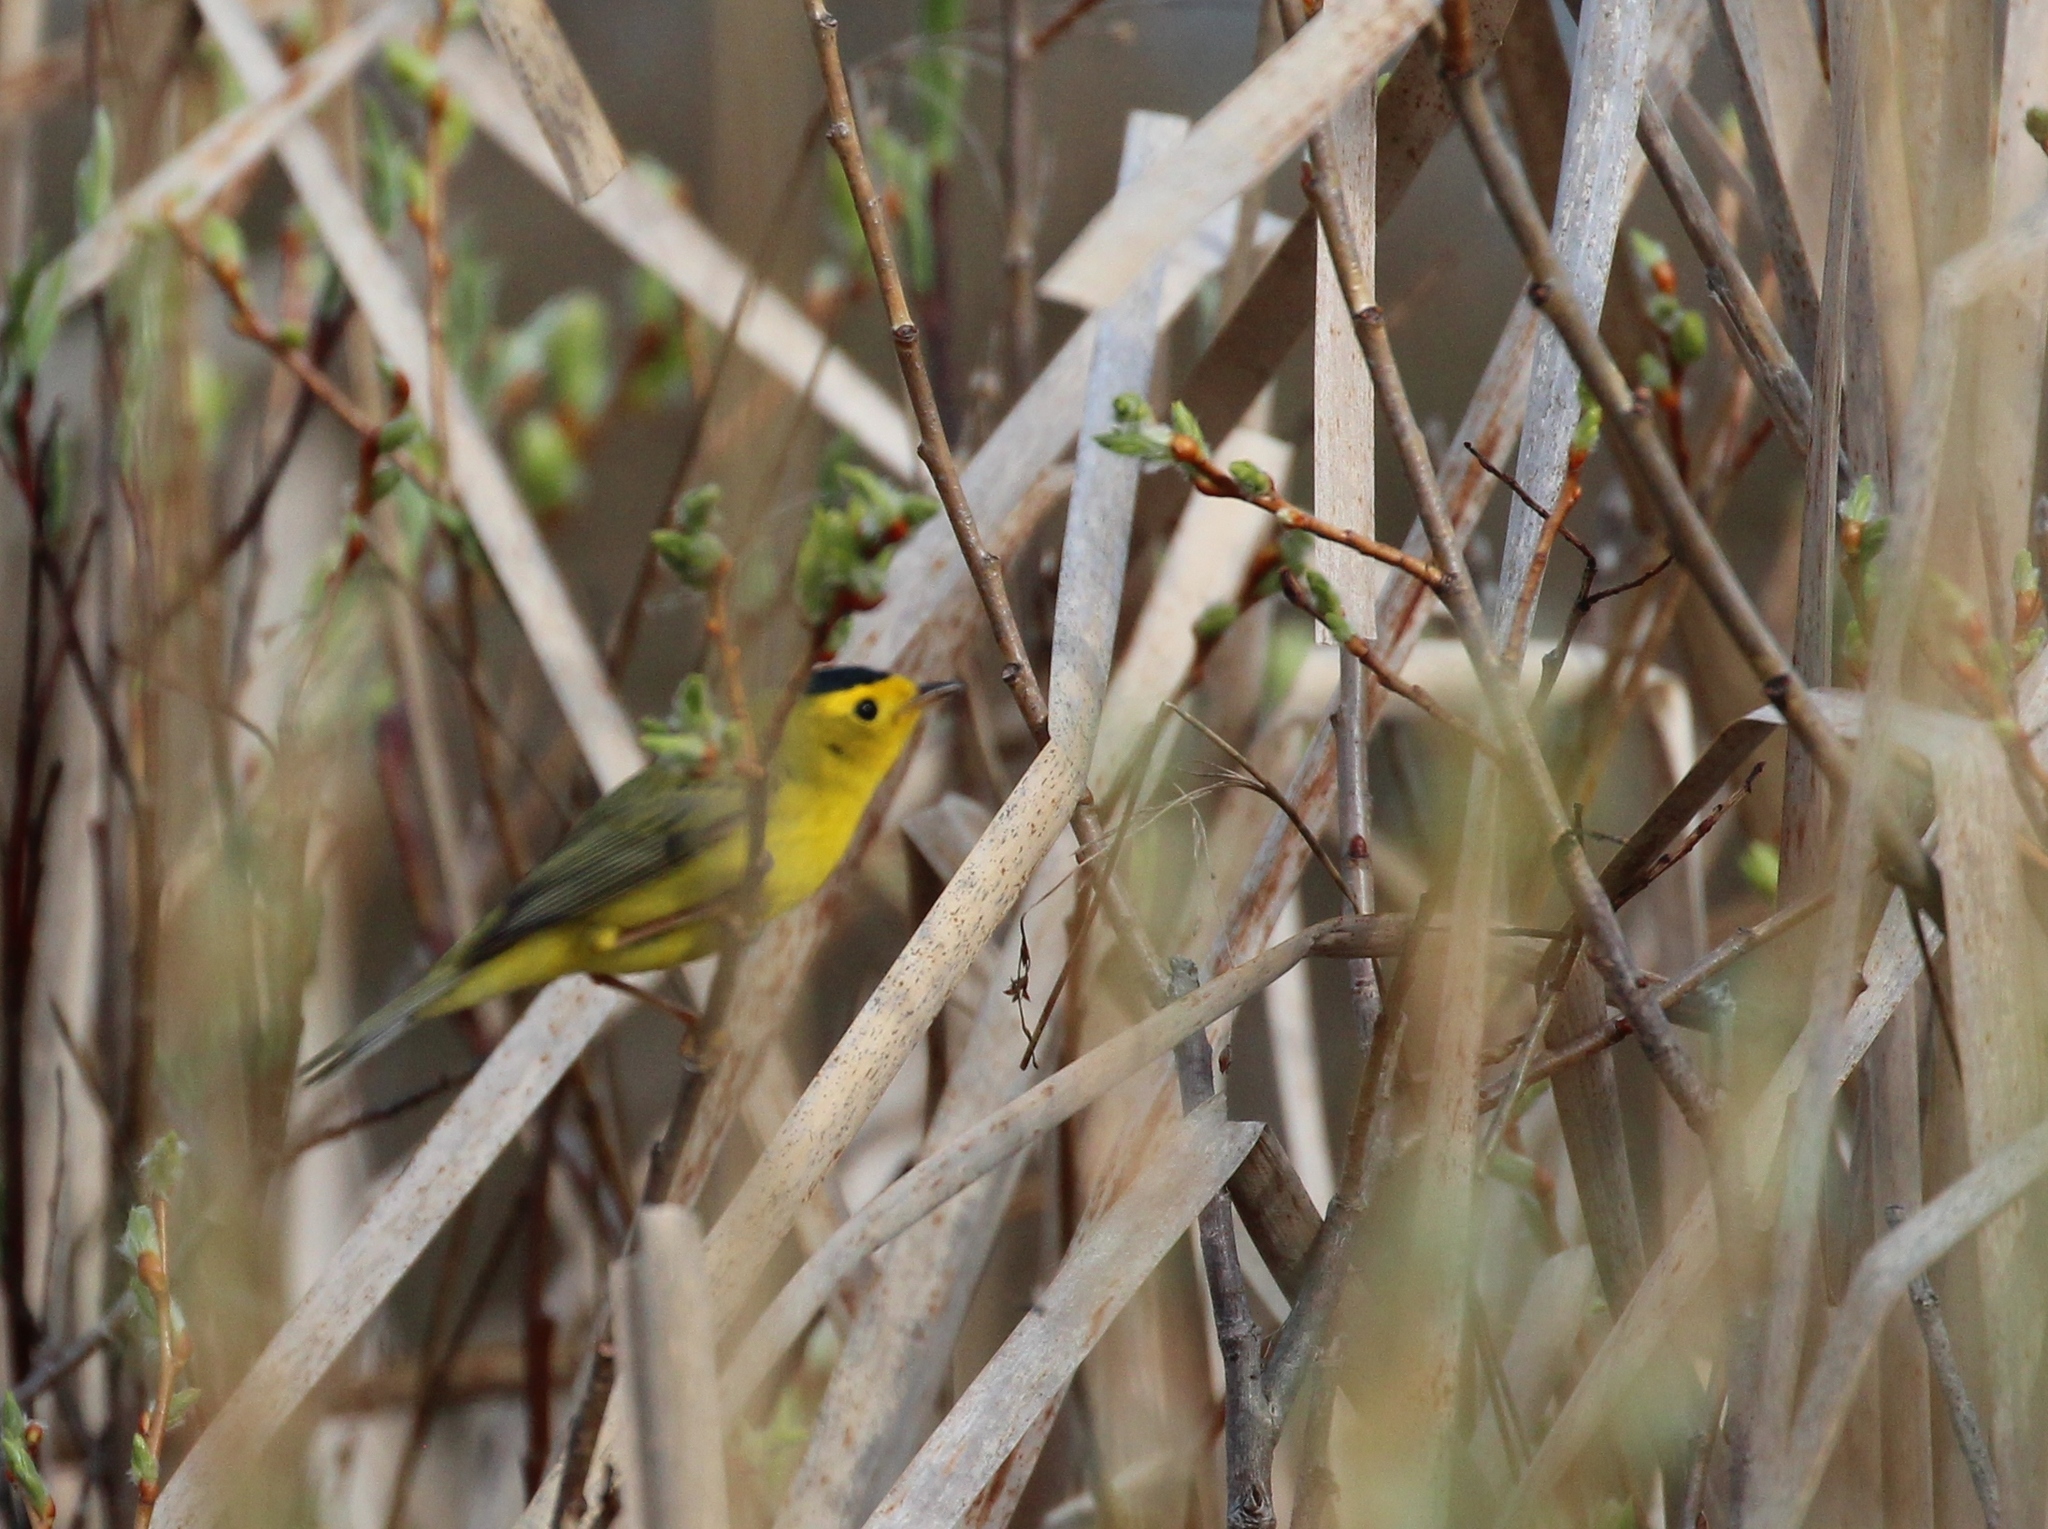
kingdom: Animalia
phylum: Chordata
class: Aves
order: Passeriformes
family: Parulidae
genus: Cardellina
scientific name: Cardellina pusilla
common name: Wilson's warbler
